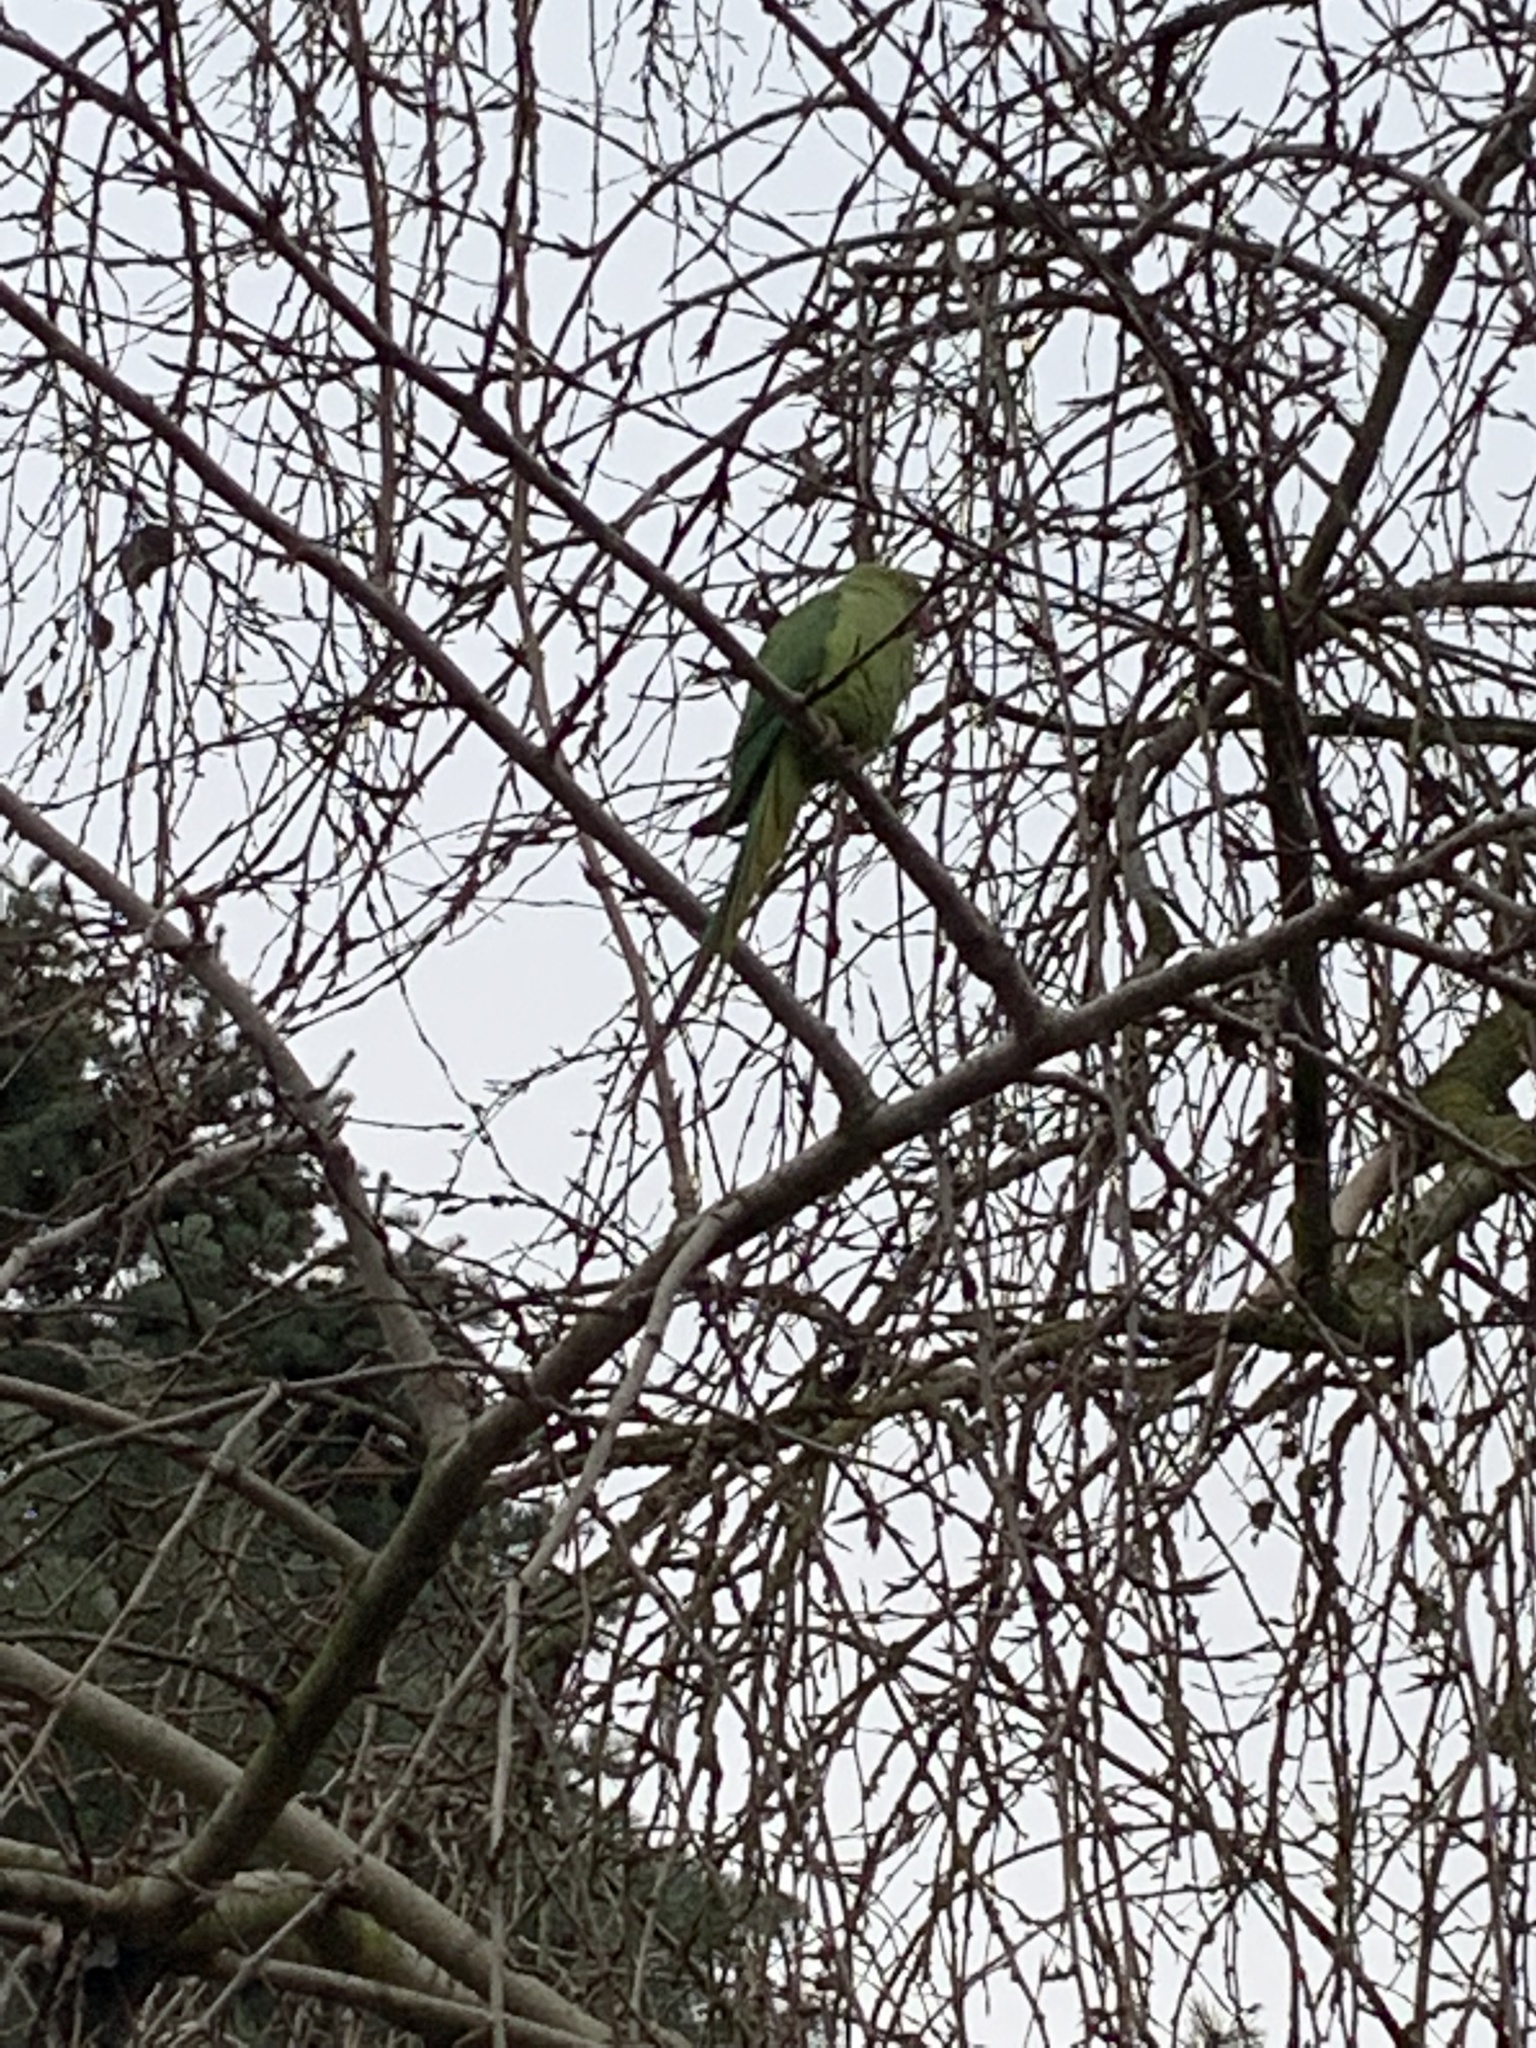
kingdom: Animalia
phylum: Chordata
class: Aves
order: Psittaciformes
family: Psittacidae
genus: Psittacula
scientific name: Psittacula krameri
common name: Rose-ringed parakeet
